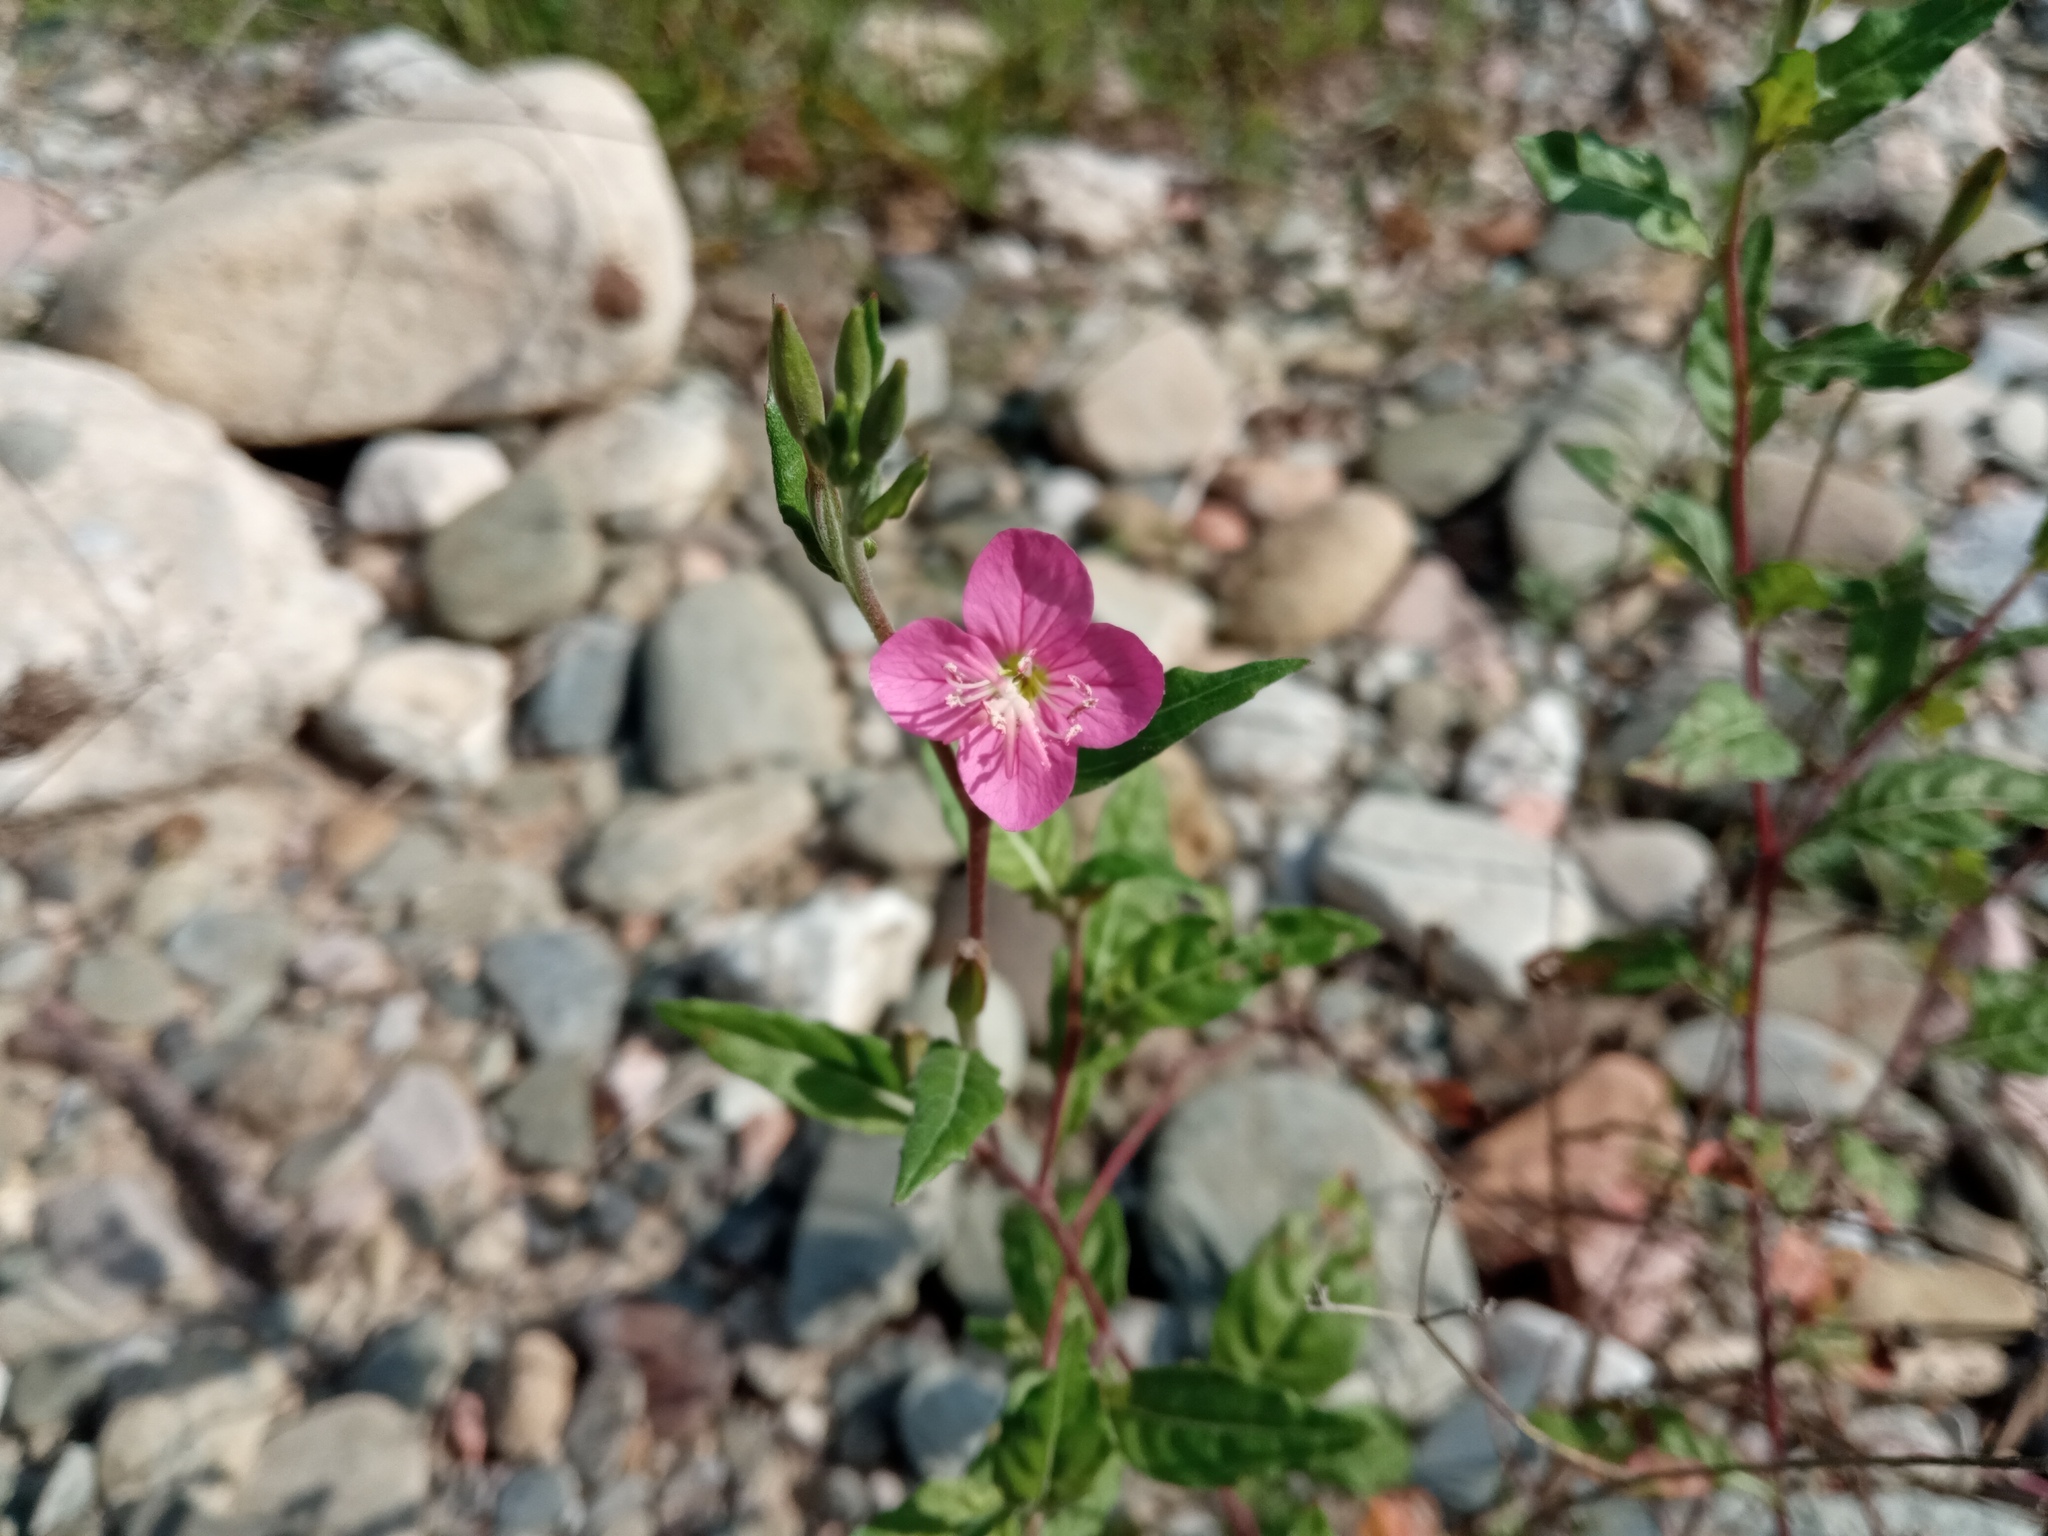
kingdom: Plantae
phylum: Tracheophyta
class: Magnoliopsida
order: Myrtales
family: Onagraceae
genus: Oenothera
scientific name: Oenothera rosea
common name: Rosy evening-primrose
